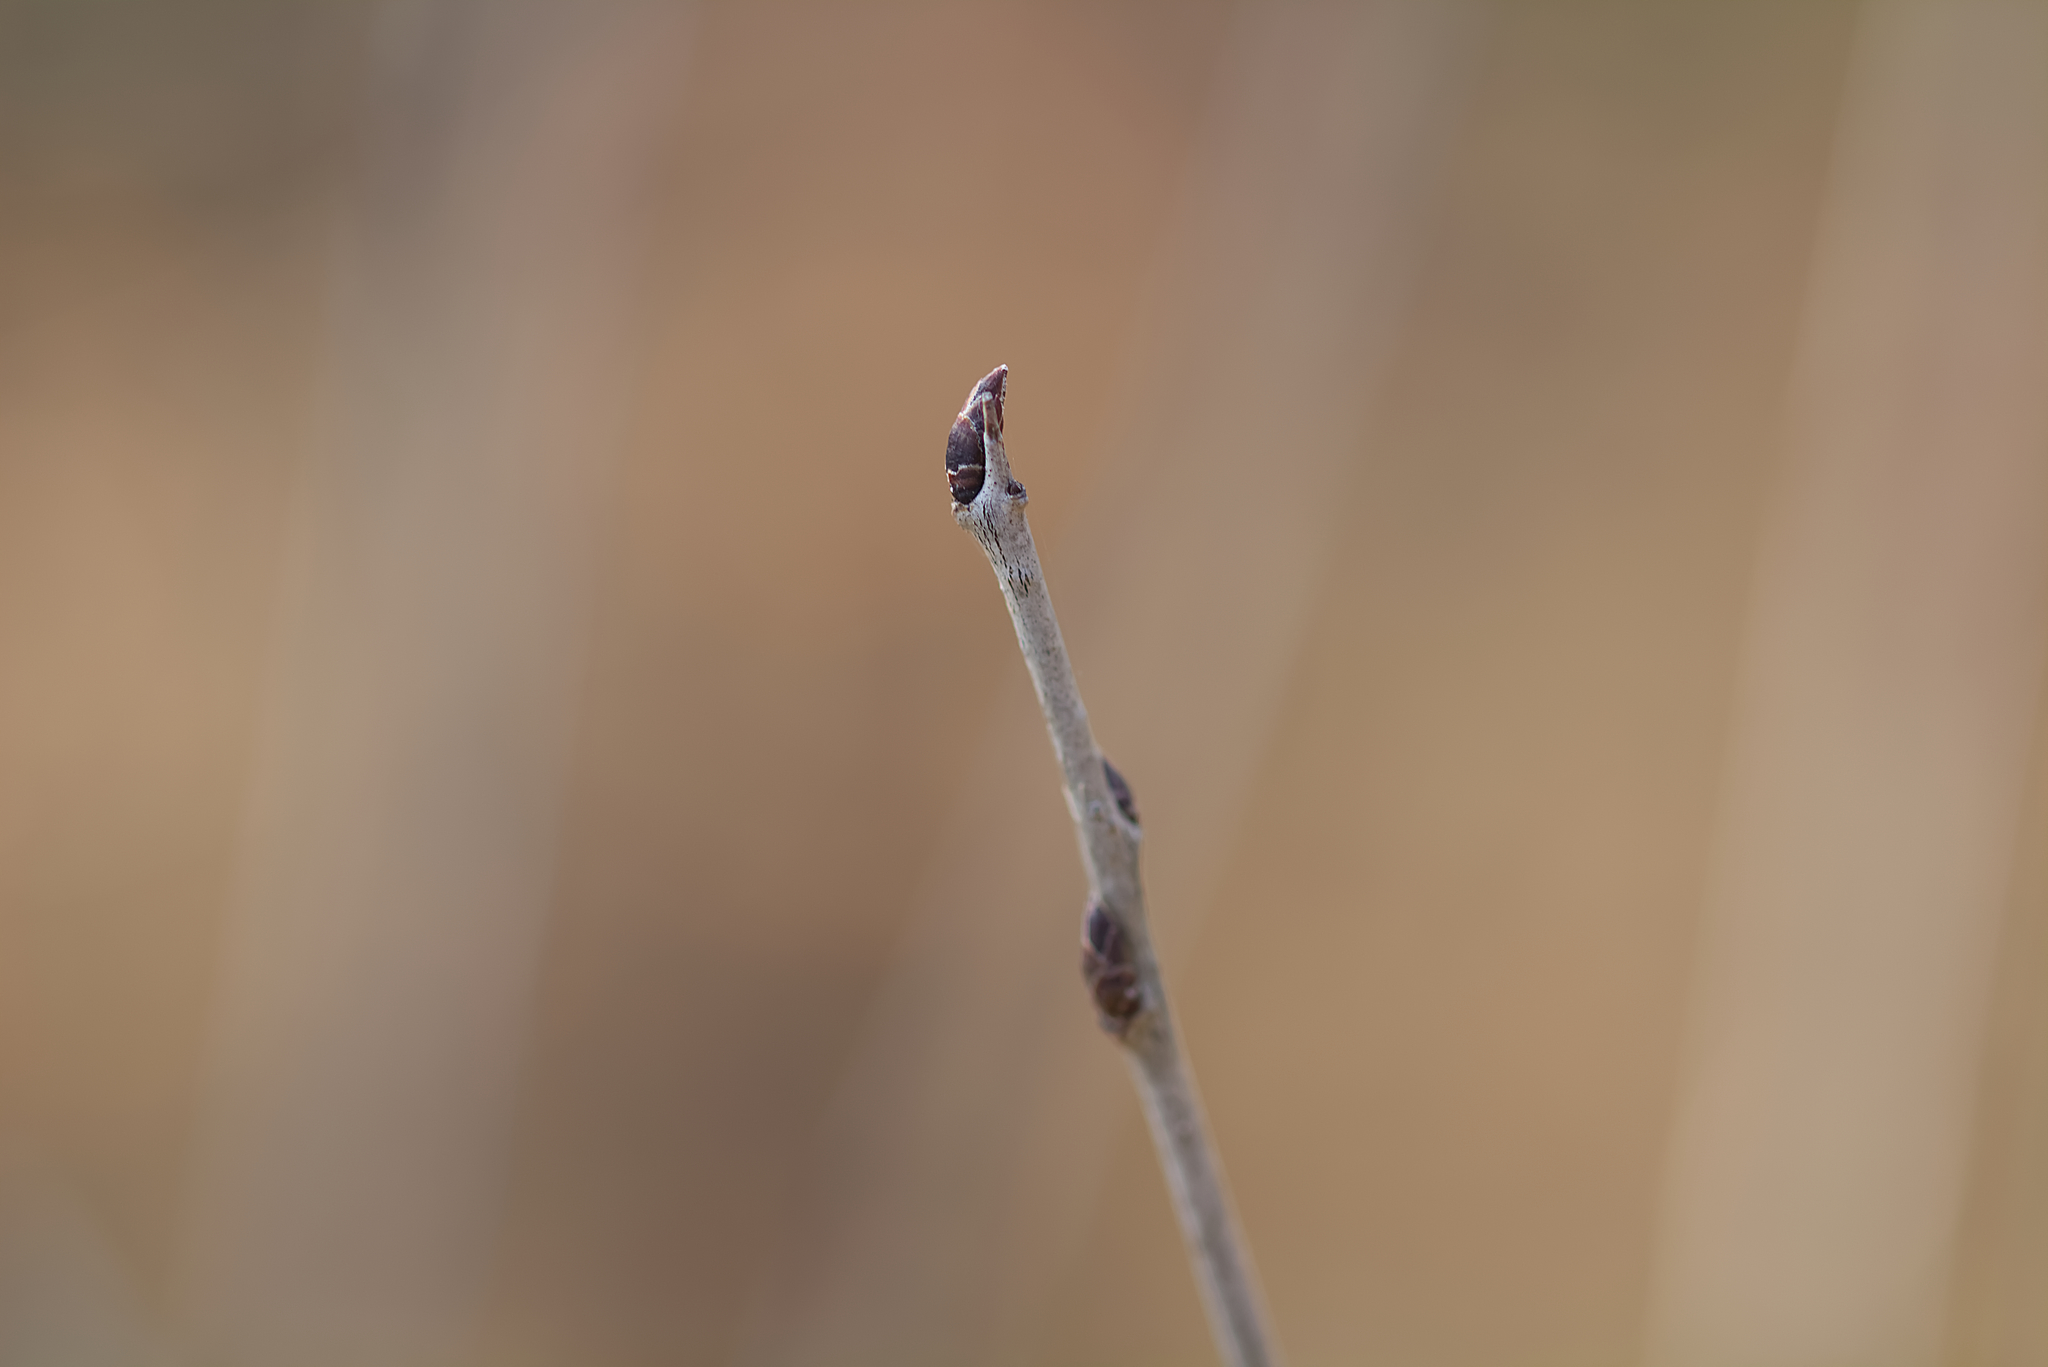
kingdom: Plantae
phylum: Tracheophyta
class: Magnoliopsida
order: Rosales
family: Rhamnaceae
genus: Rhamnus
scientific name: Rhamnus cathartica
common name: Common buckthorn
